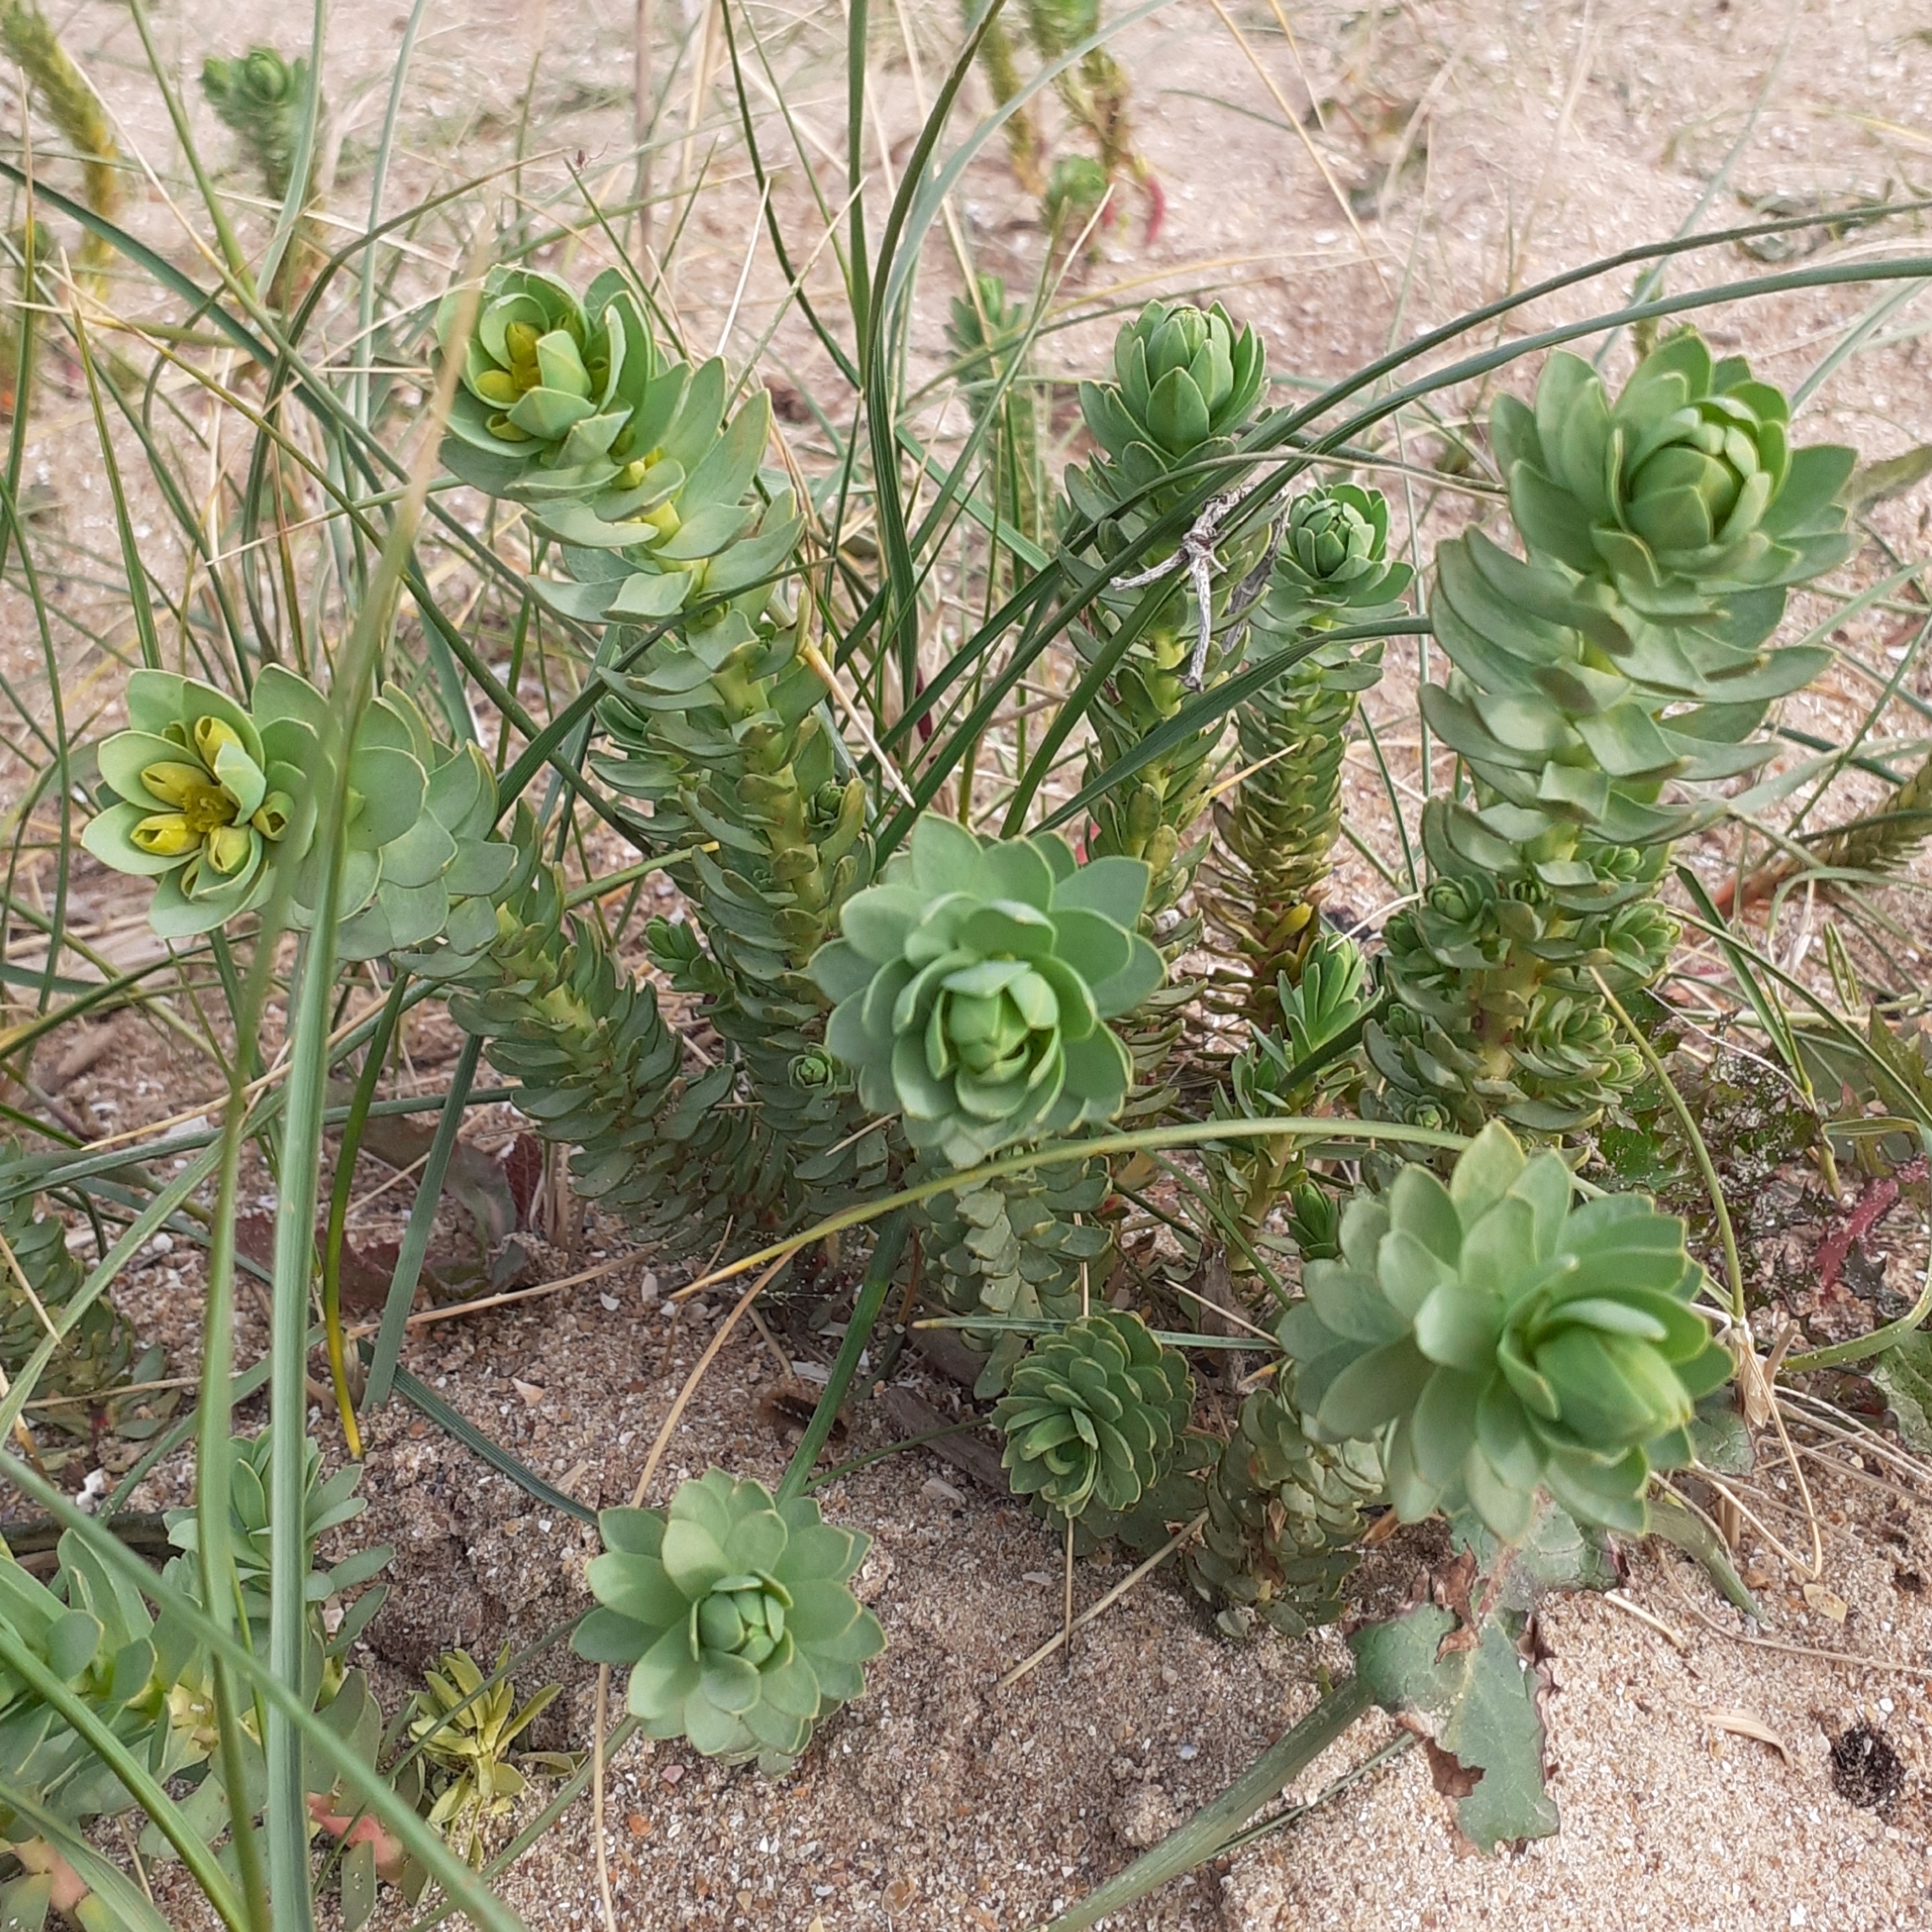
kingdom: Plantae
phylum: Tracheophyta
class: Magnoliopsida
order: Malpighiales
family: Euphorbiaceae
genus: Euphorbia
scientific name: Euphorbia paralias
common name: Sea spurge
